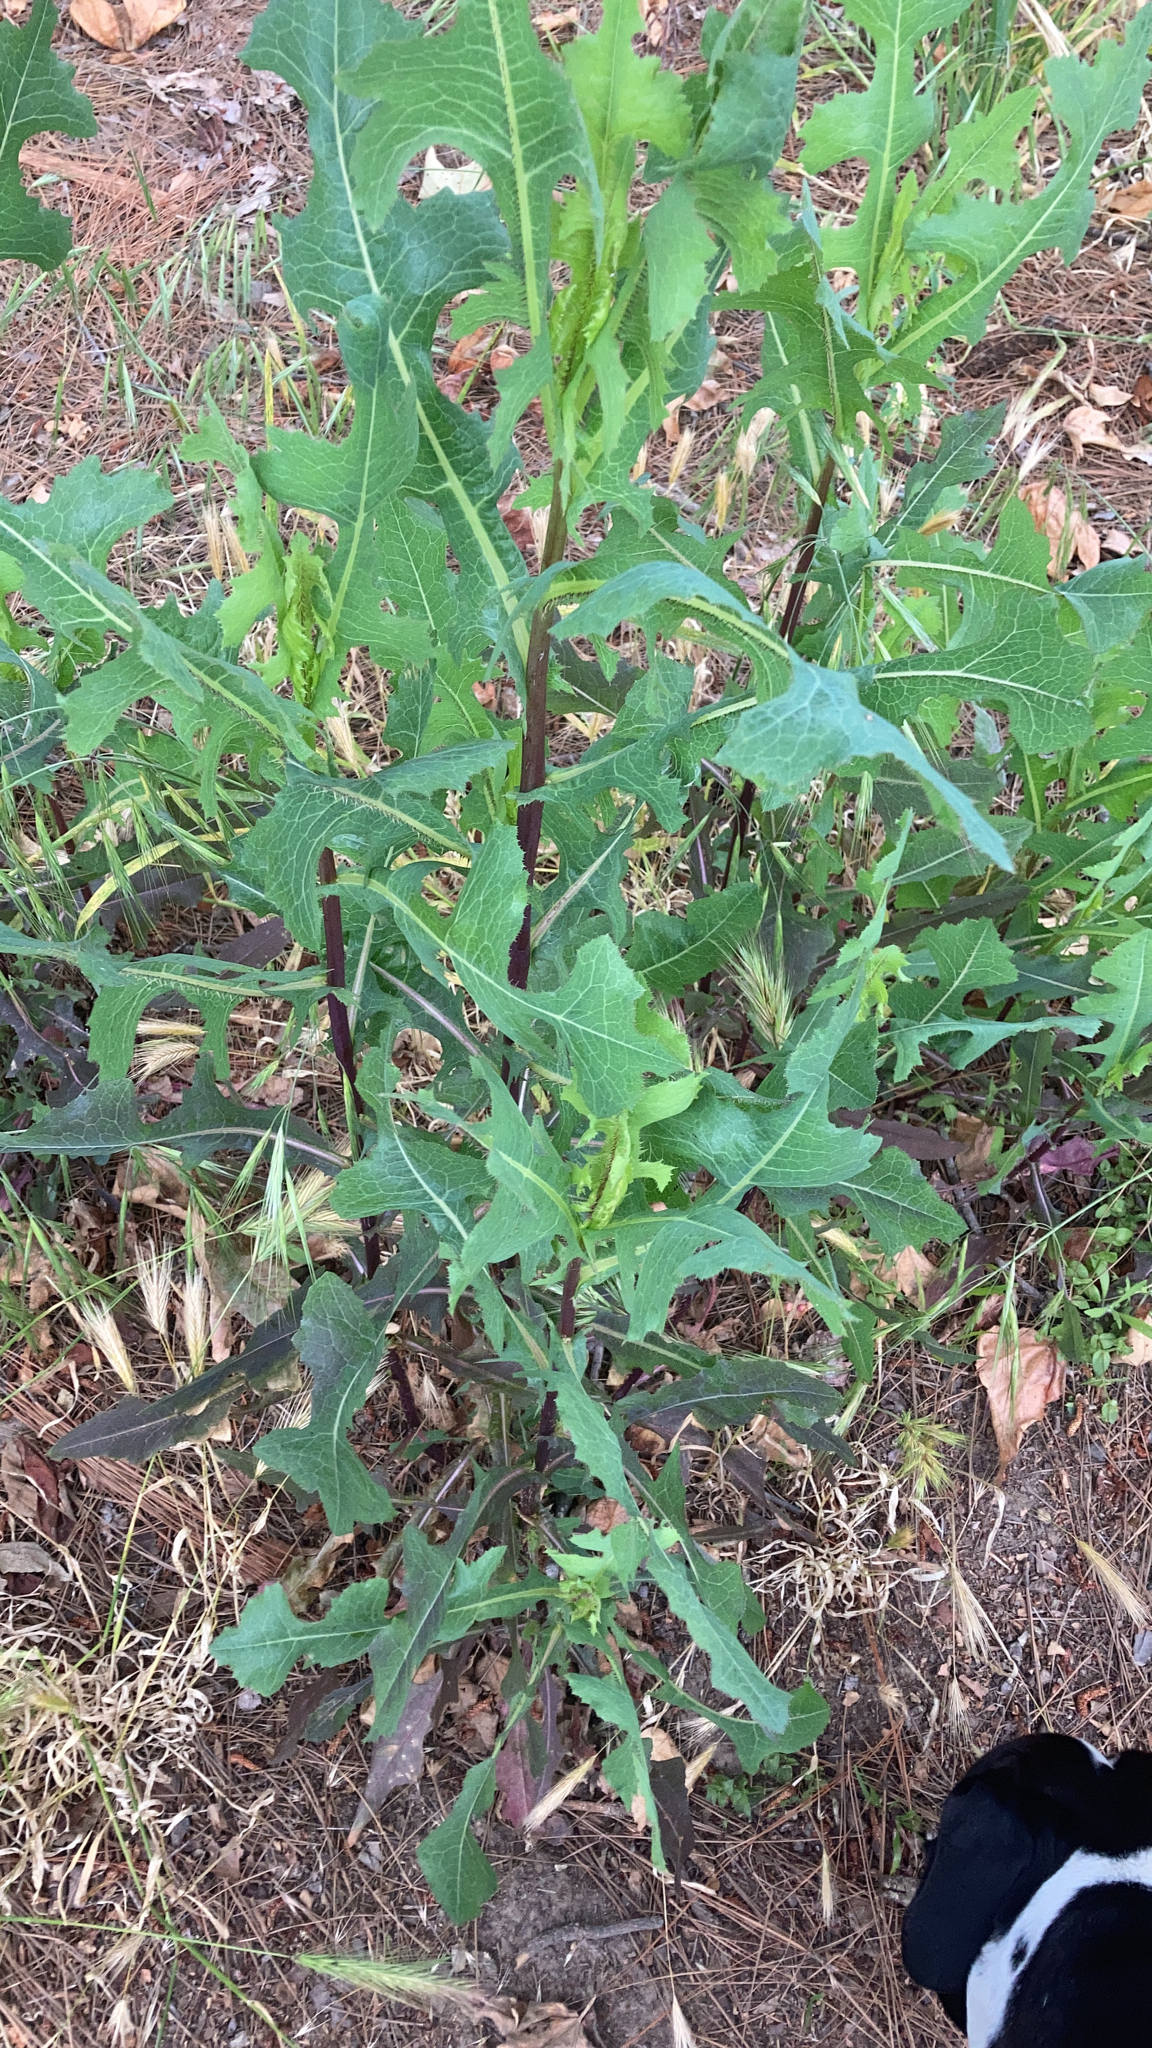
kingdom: Plantae
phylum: Tracheophyta
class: Magnoliopsida
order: Asterales
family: Asteraceae
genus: Lactuca
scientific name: Lactuca serriola
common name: Prickly lettuce
